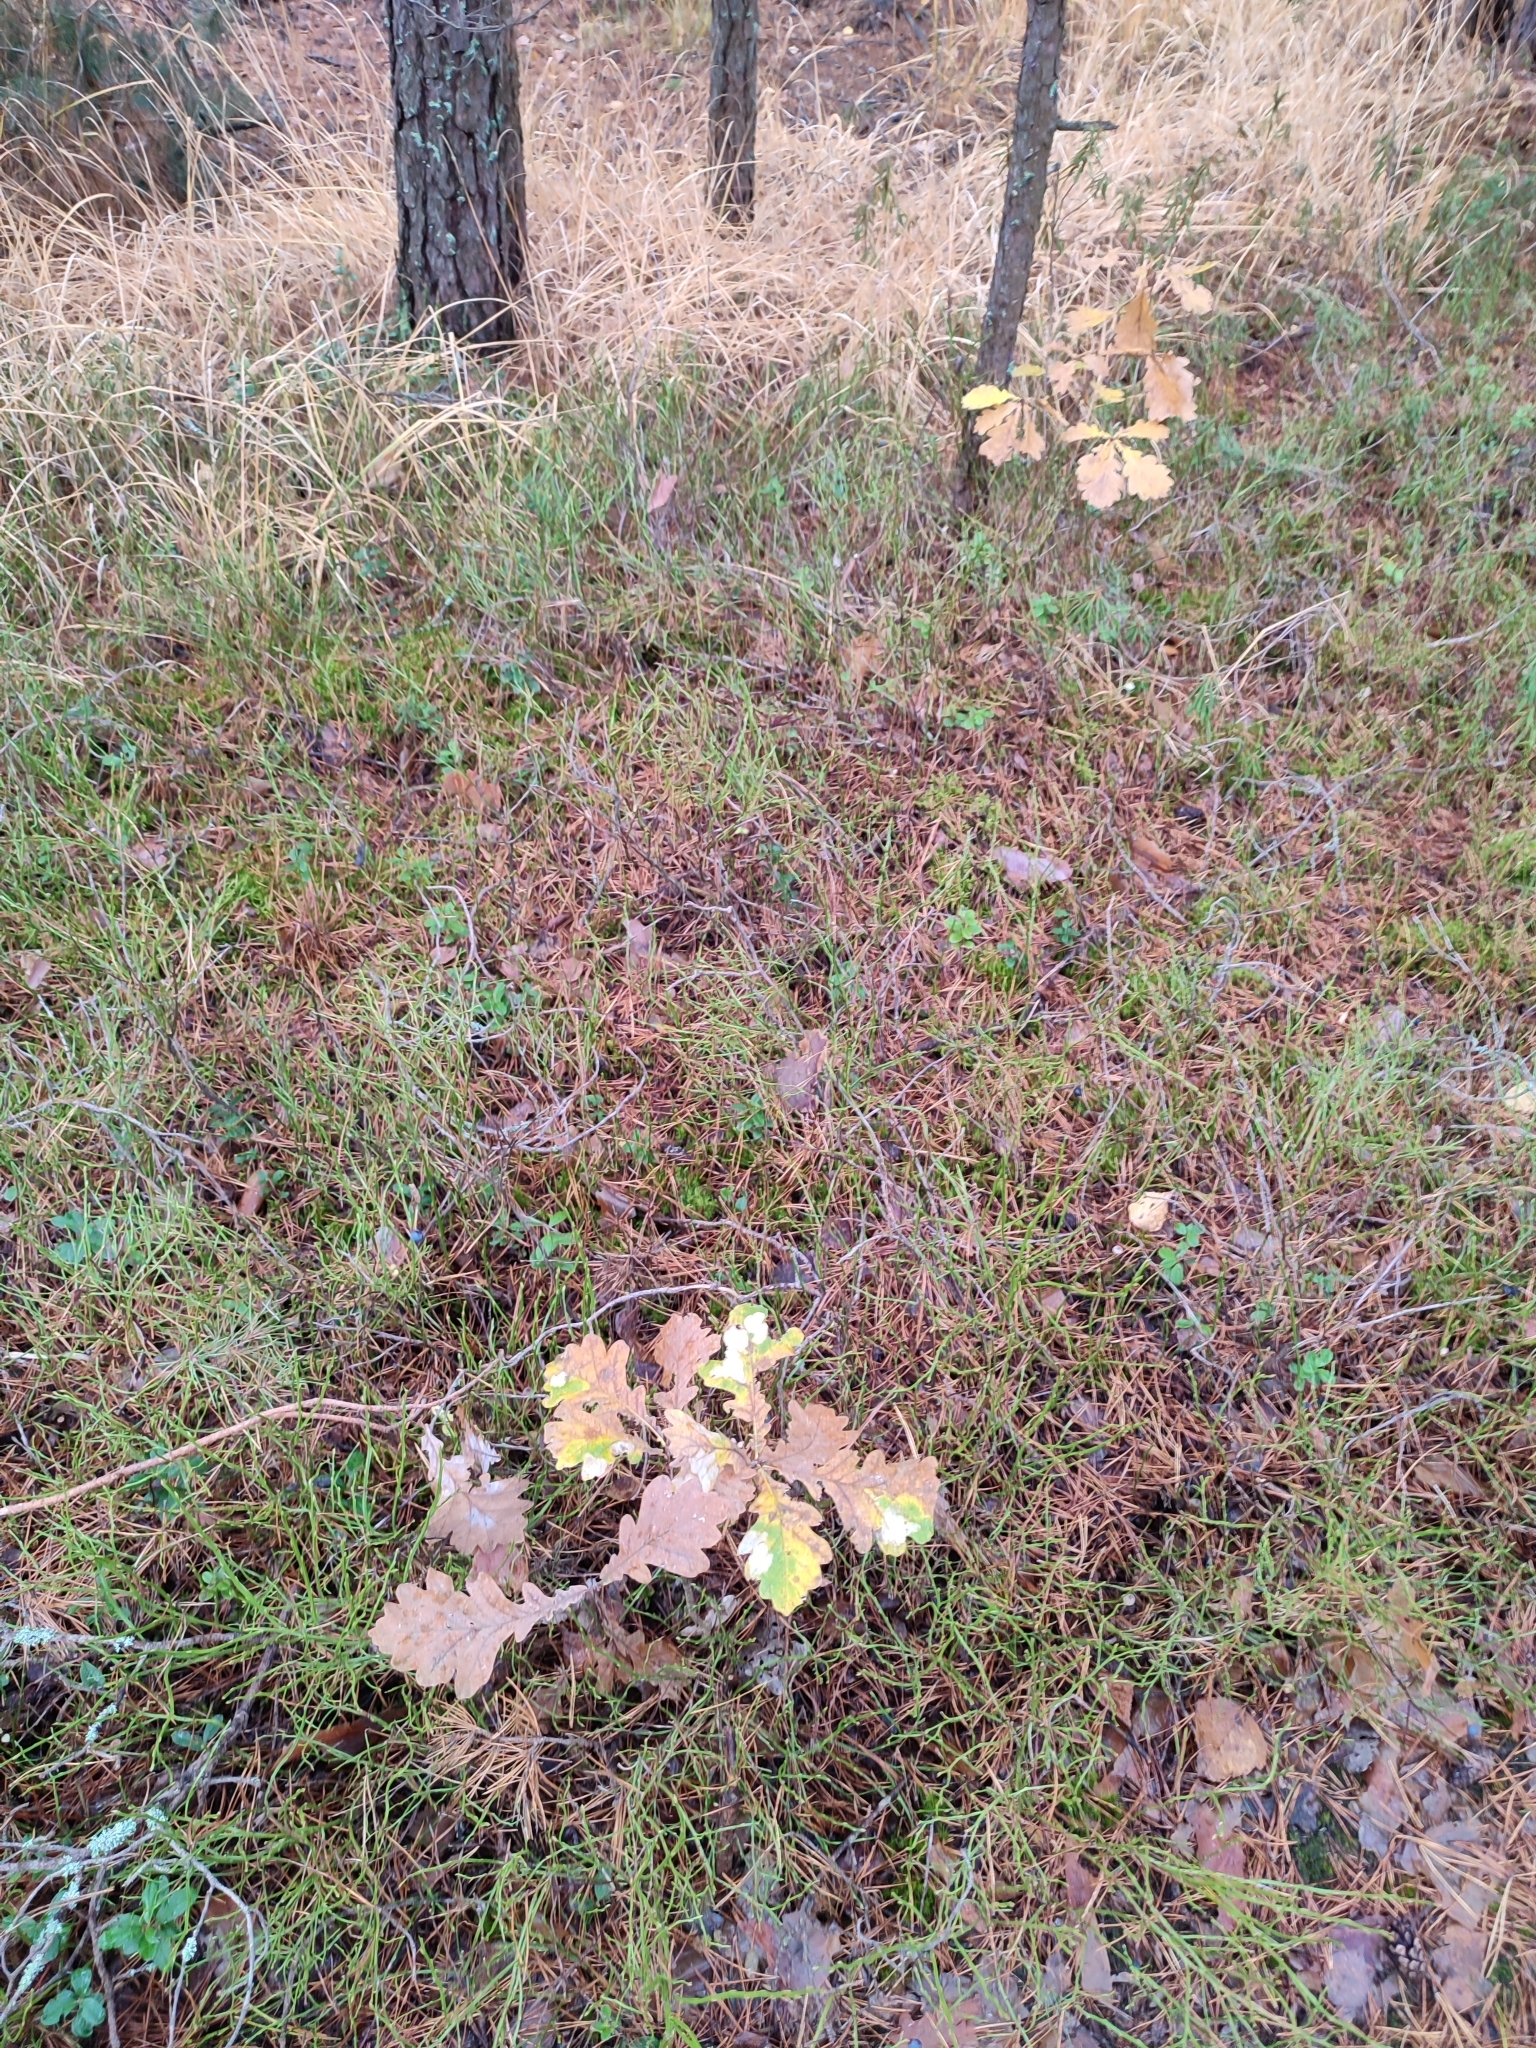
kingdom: Plantae
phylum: Tracheophyta
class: Magnoliopsida
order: Fagales
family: Fagaceae
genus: Quercus
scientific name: Quercus robur
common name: Pedunculate oak
